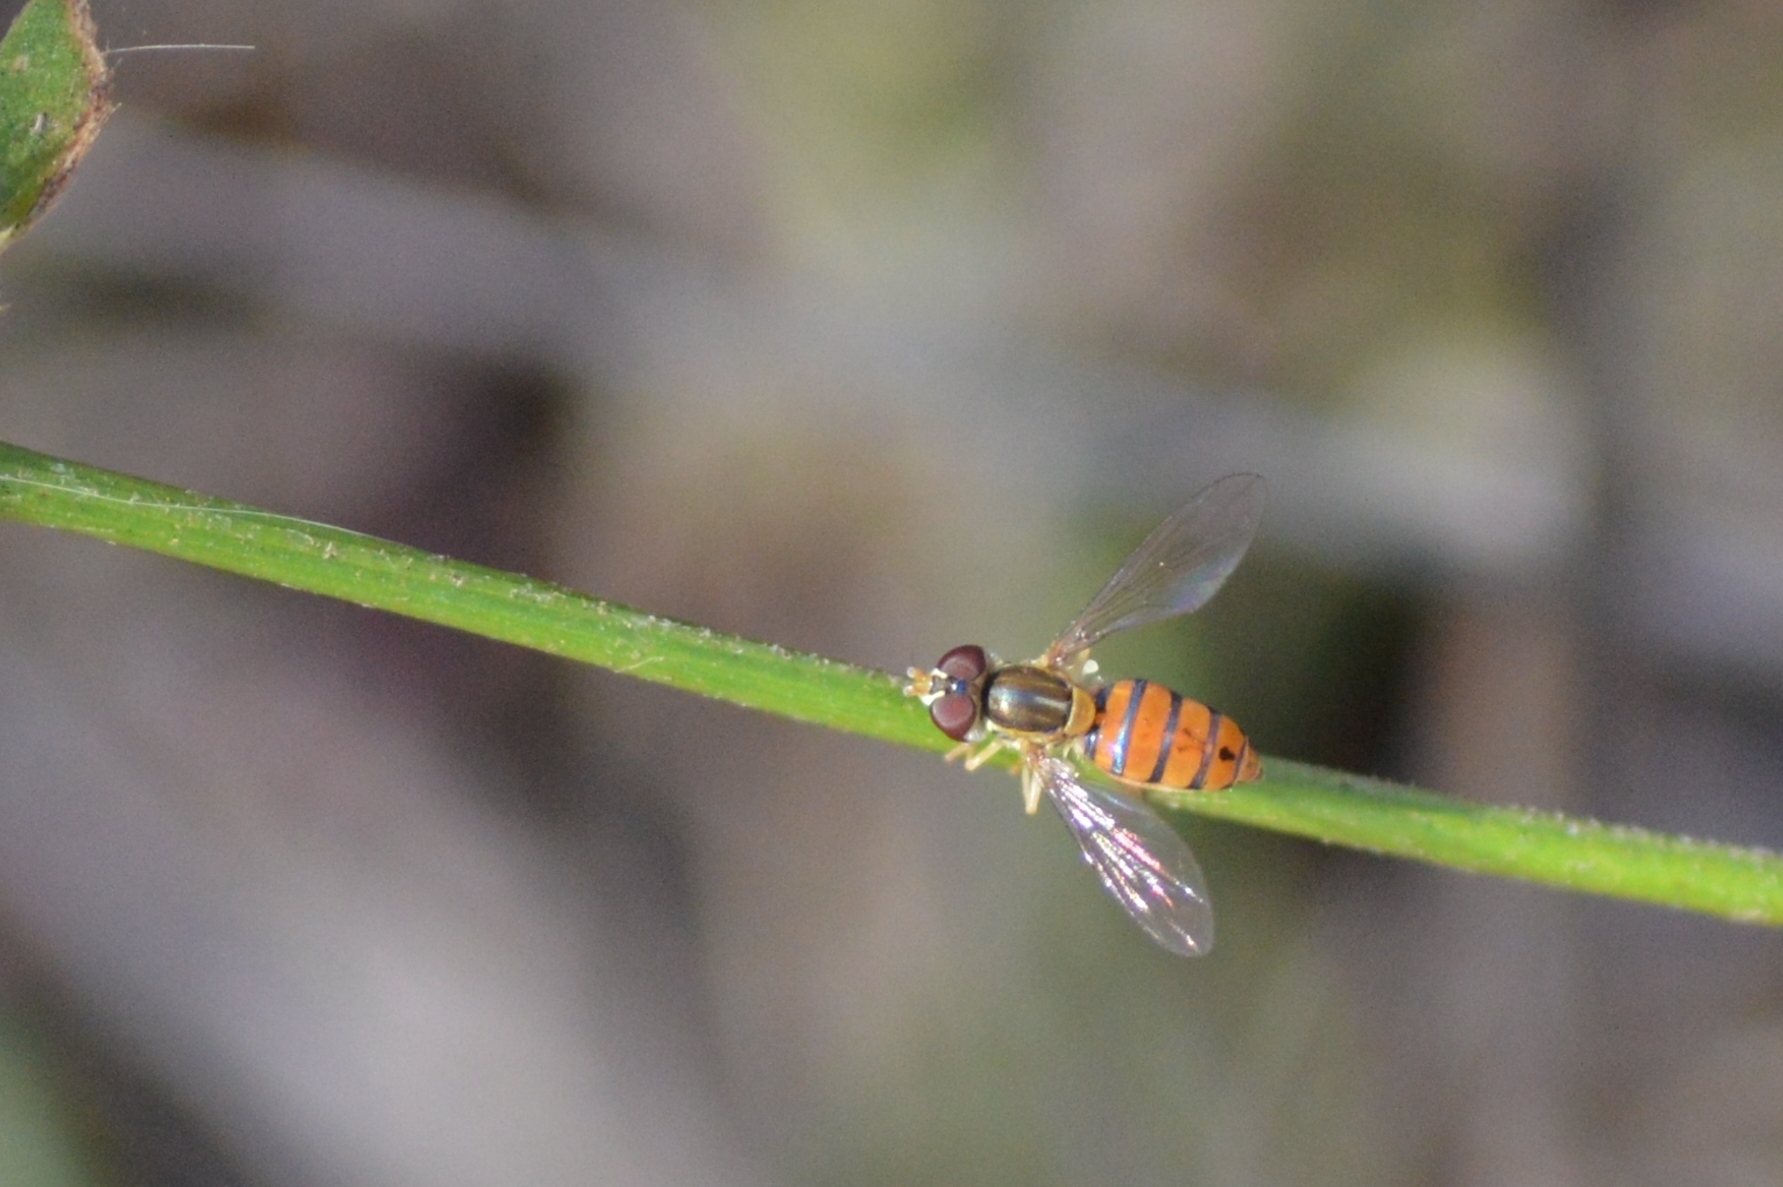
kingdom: Animalia
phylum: Arthropoda
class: Insecta
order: Diptera
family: Syrphidae
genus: Toxomerus
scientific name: Toxomerus
